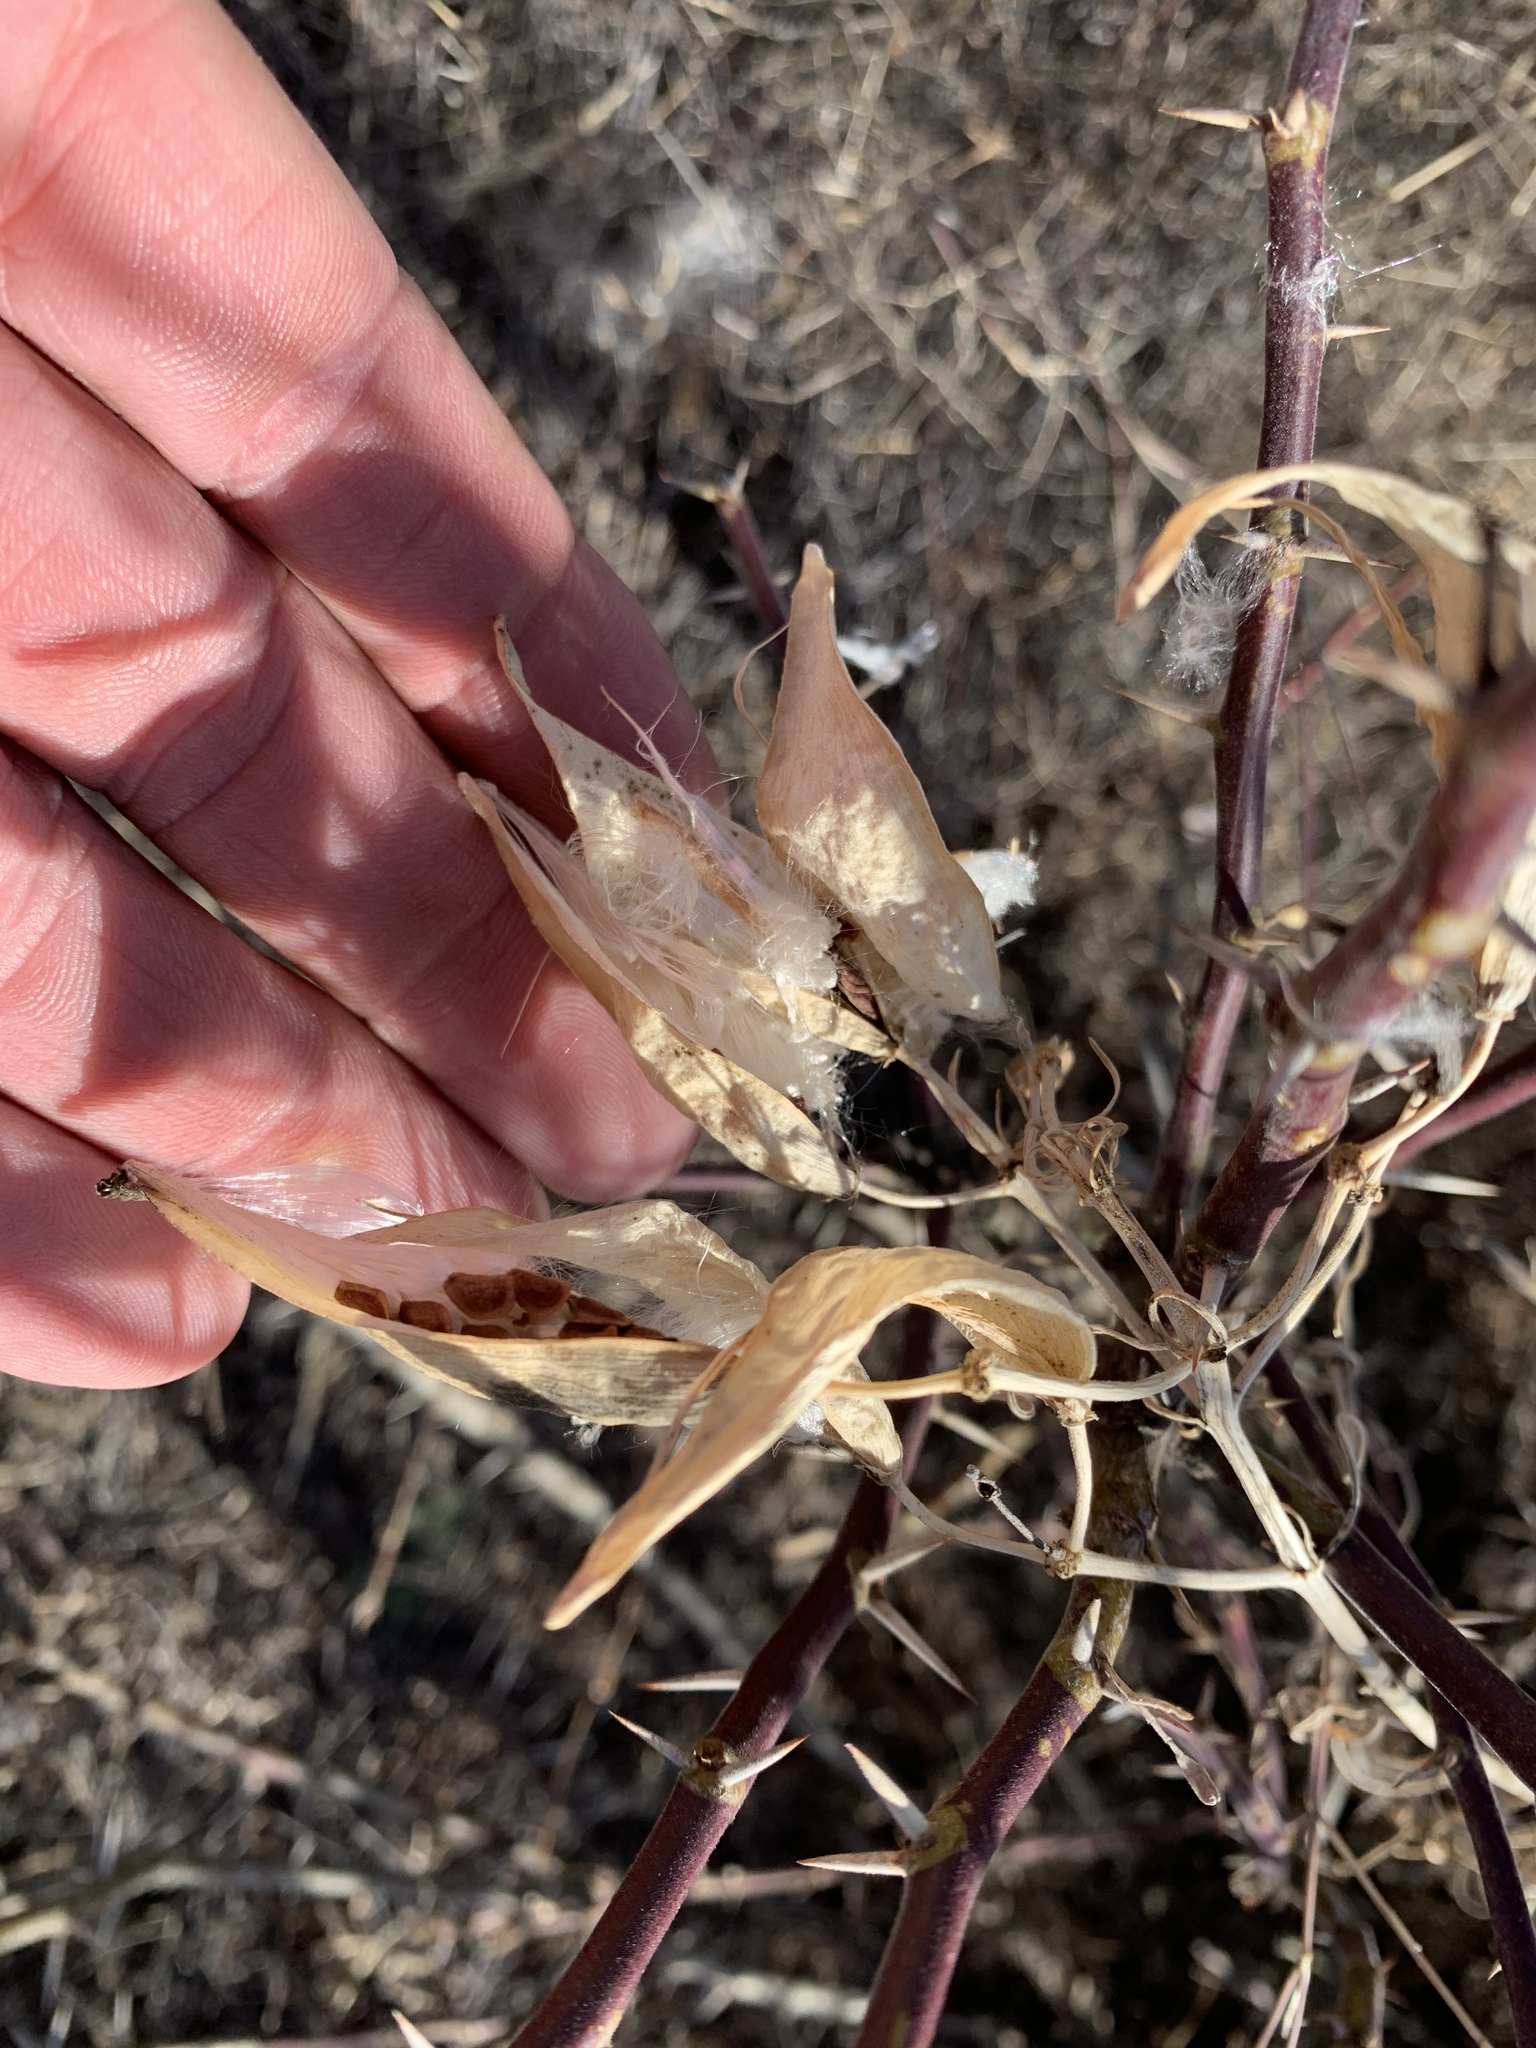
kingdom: Plantae
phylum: Tracheophyta
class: Magnoliopsida
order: Gentianales
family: Apocynaceae
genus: Asclepias
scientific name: Asclepias subverticillata
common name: Horsetail milkweed
